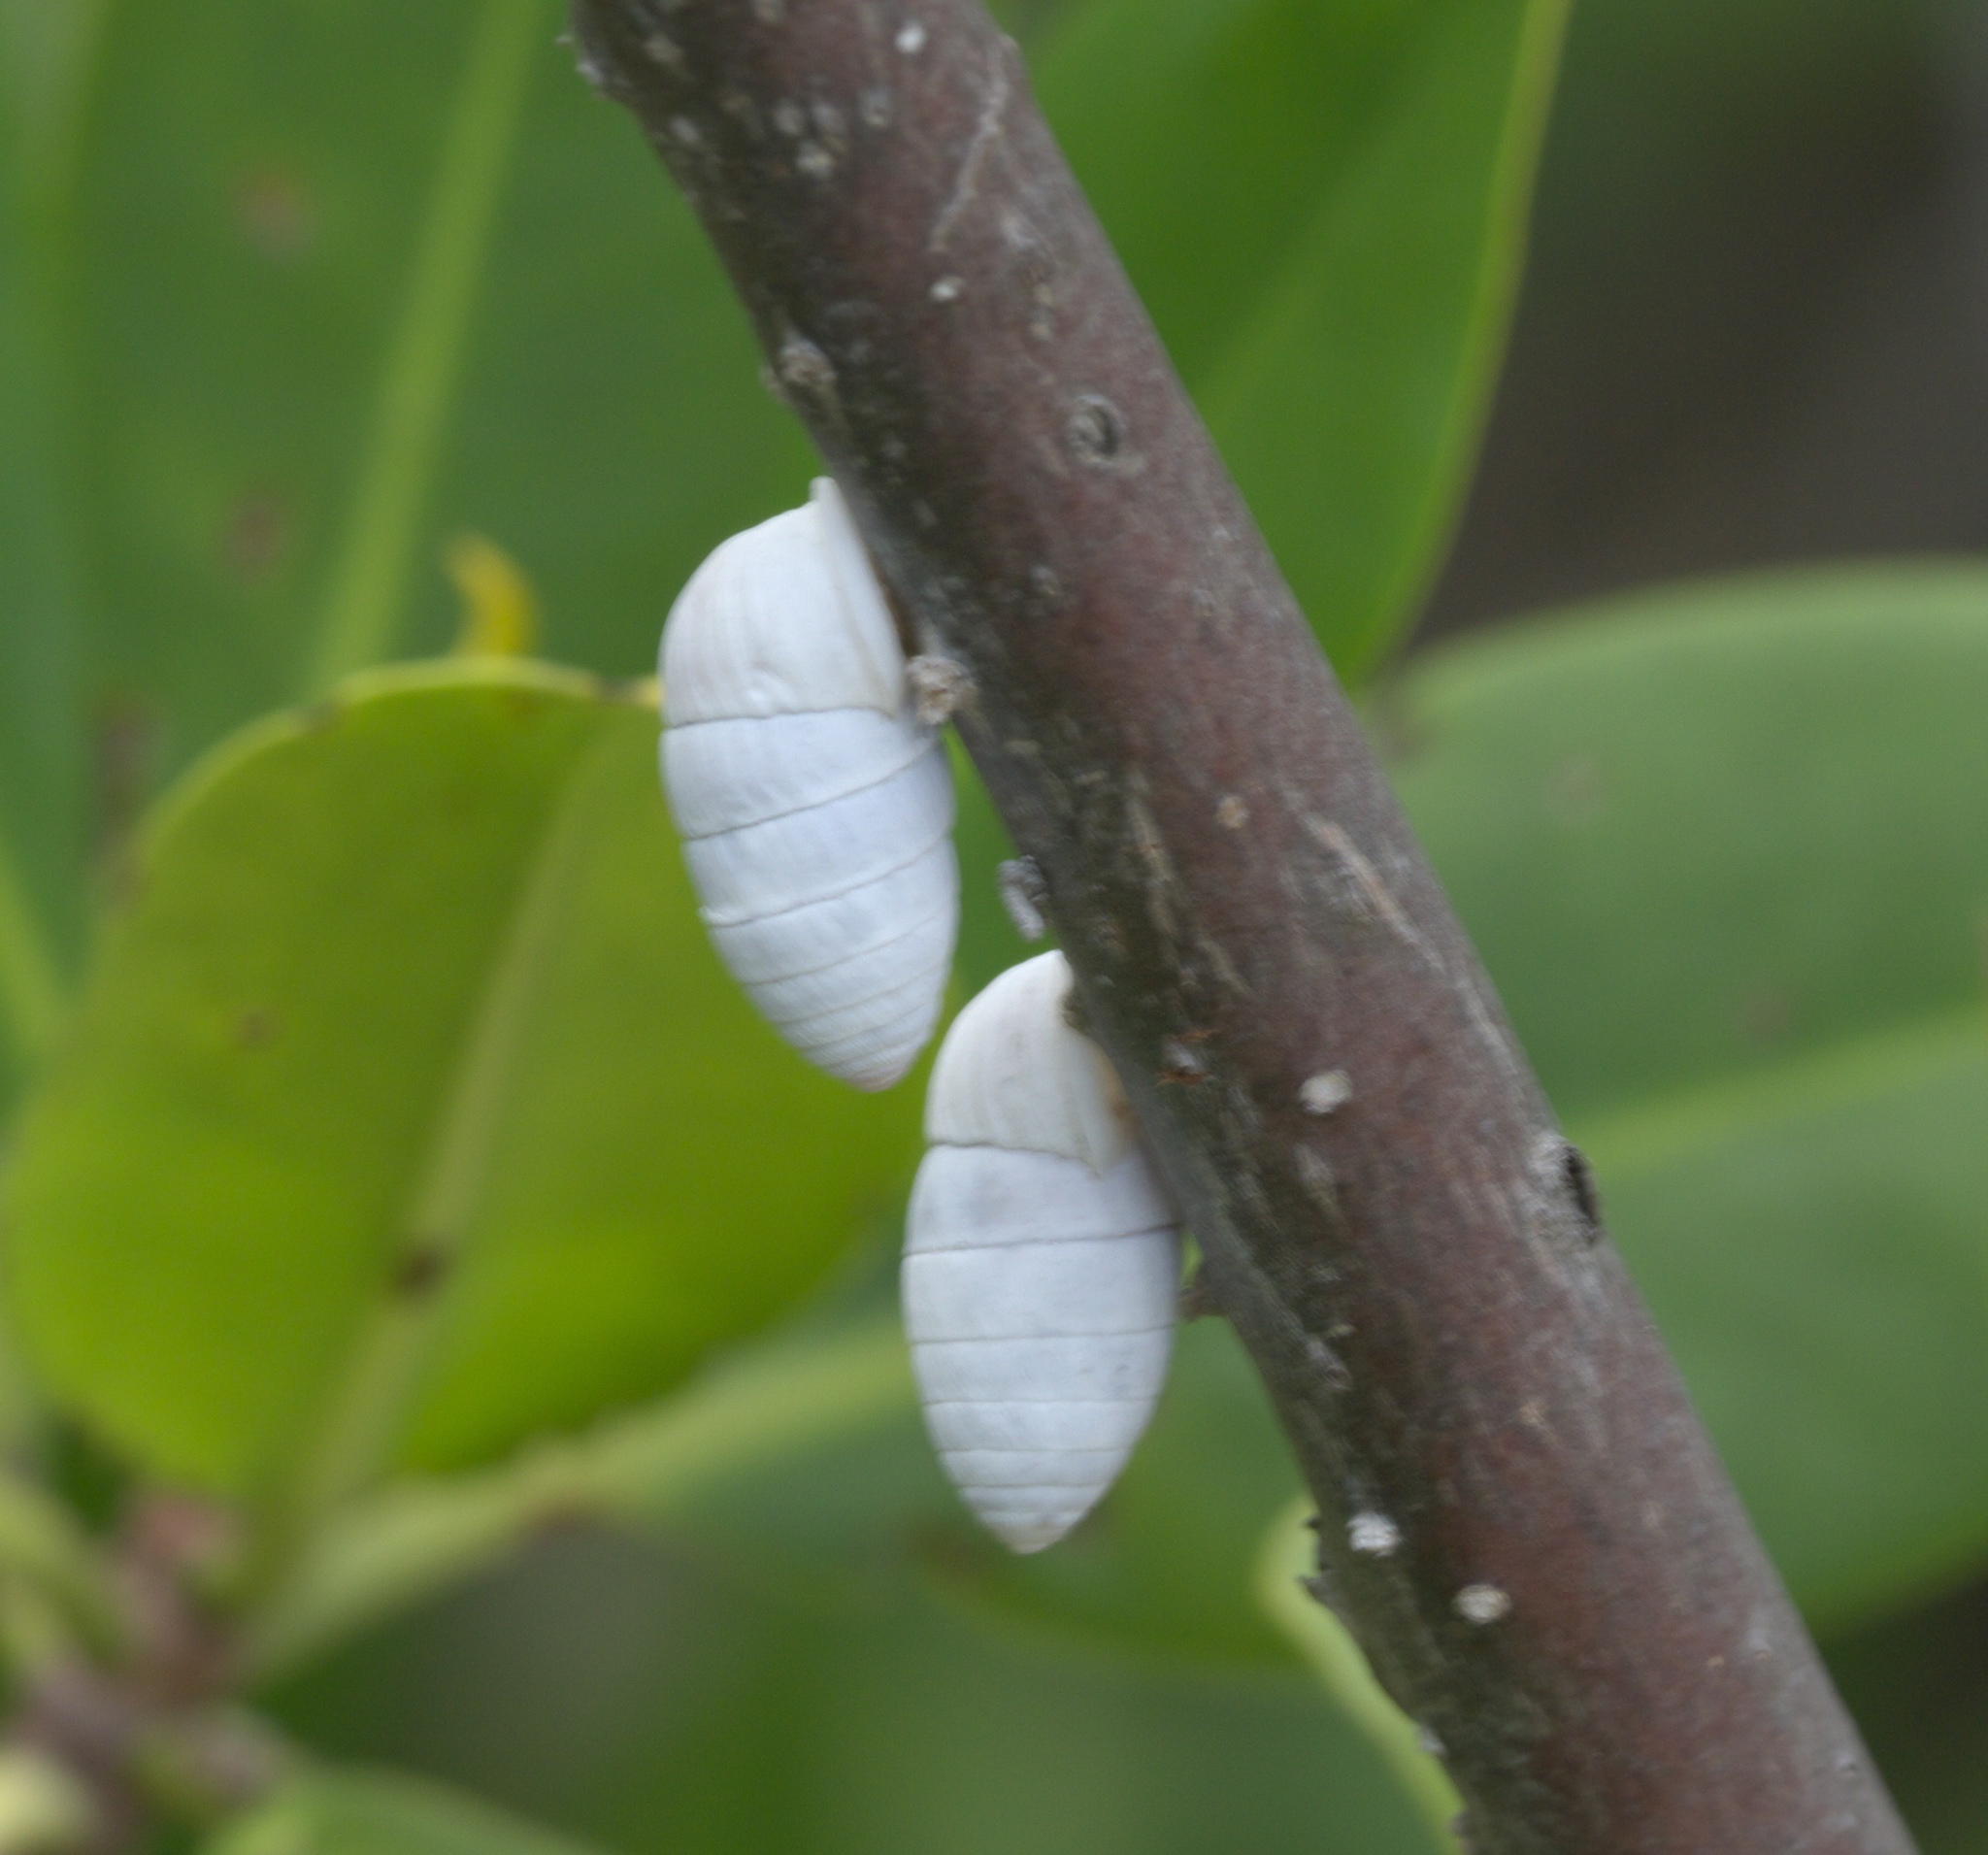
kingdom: Animalia
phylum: Mollusca
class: Gastropoda
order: Stylommatophora
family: Cerionidae
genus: Cerion
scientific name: Cerion incanum
